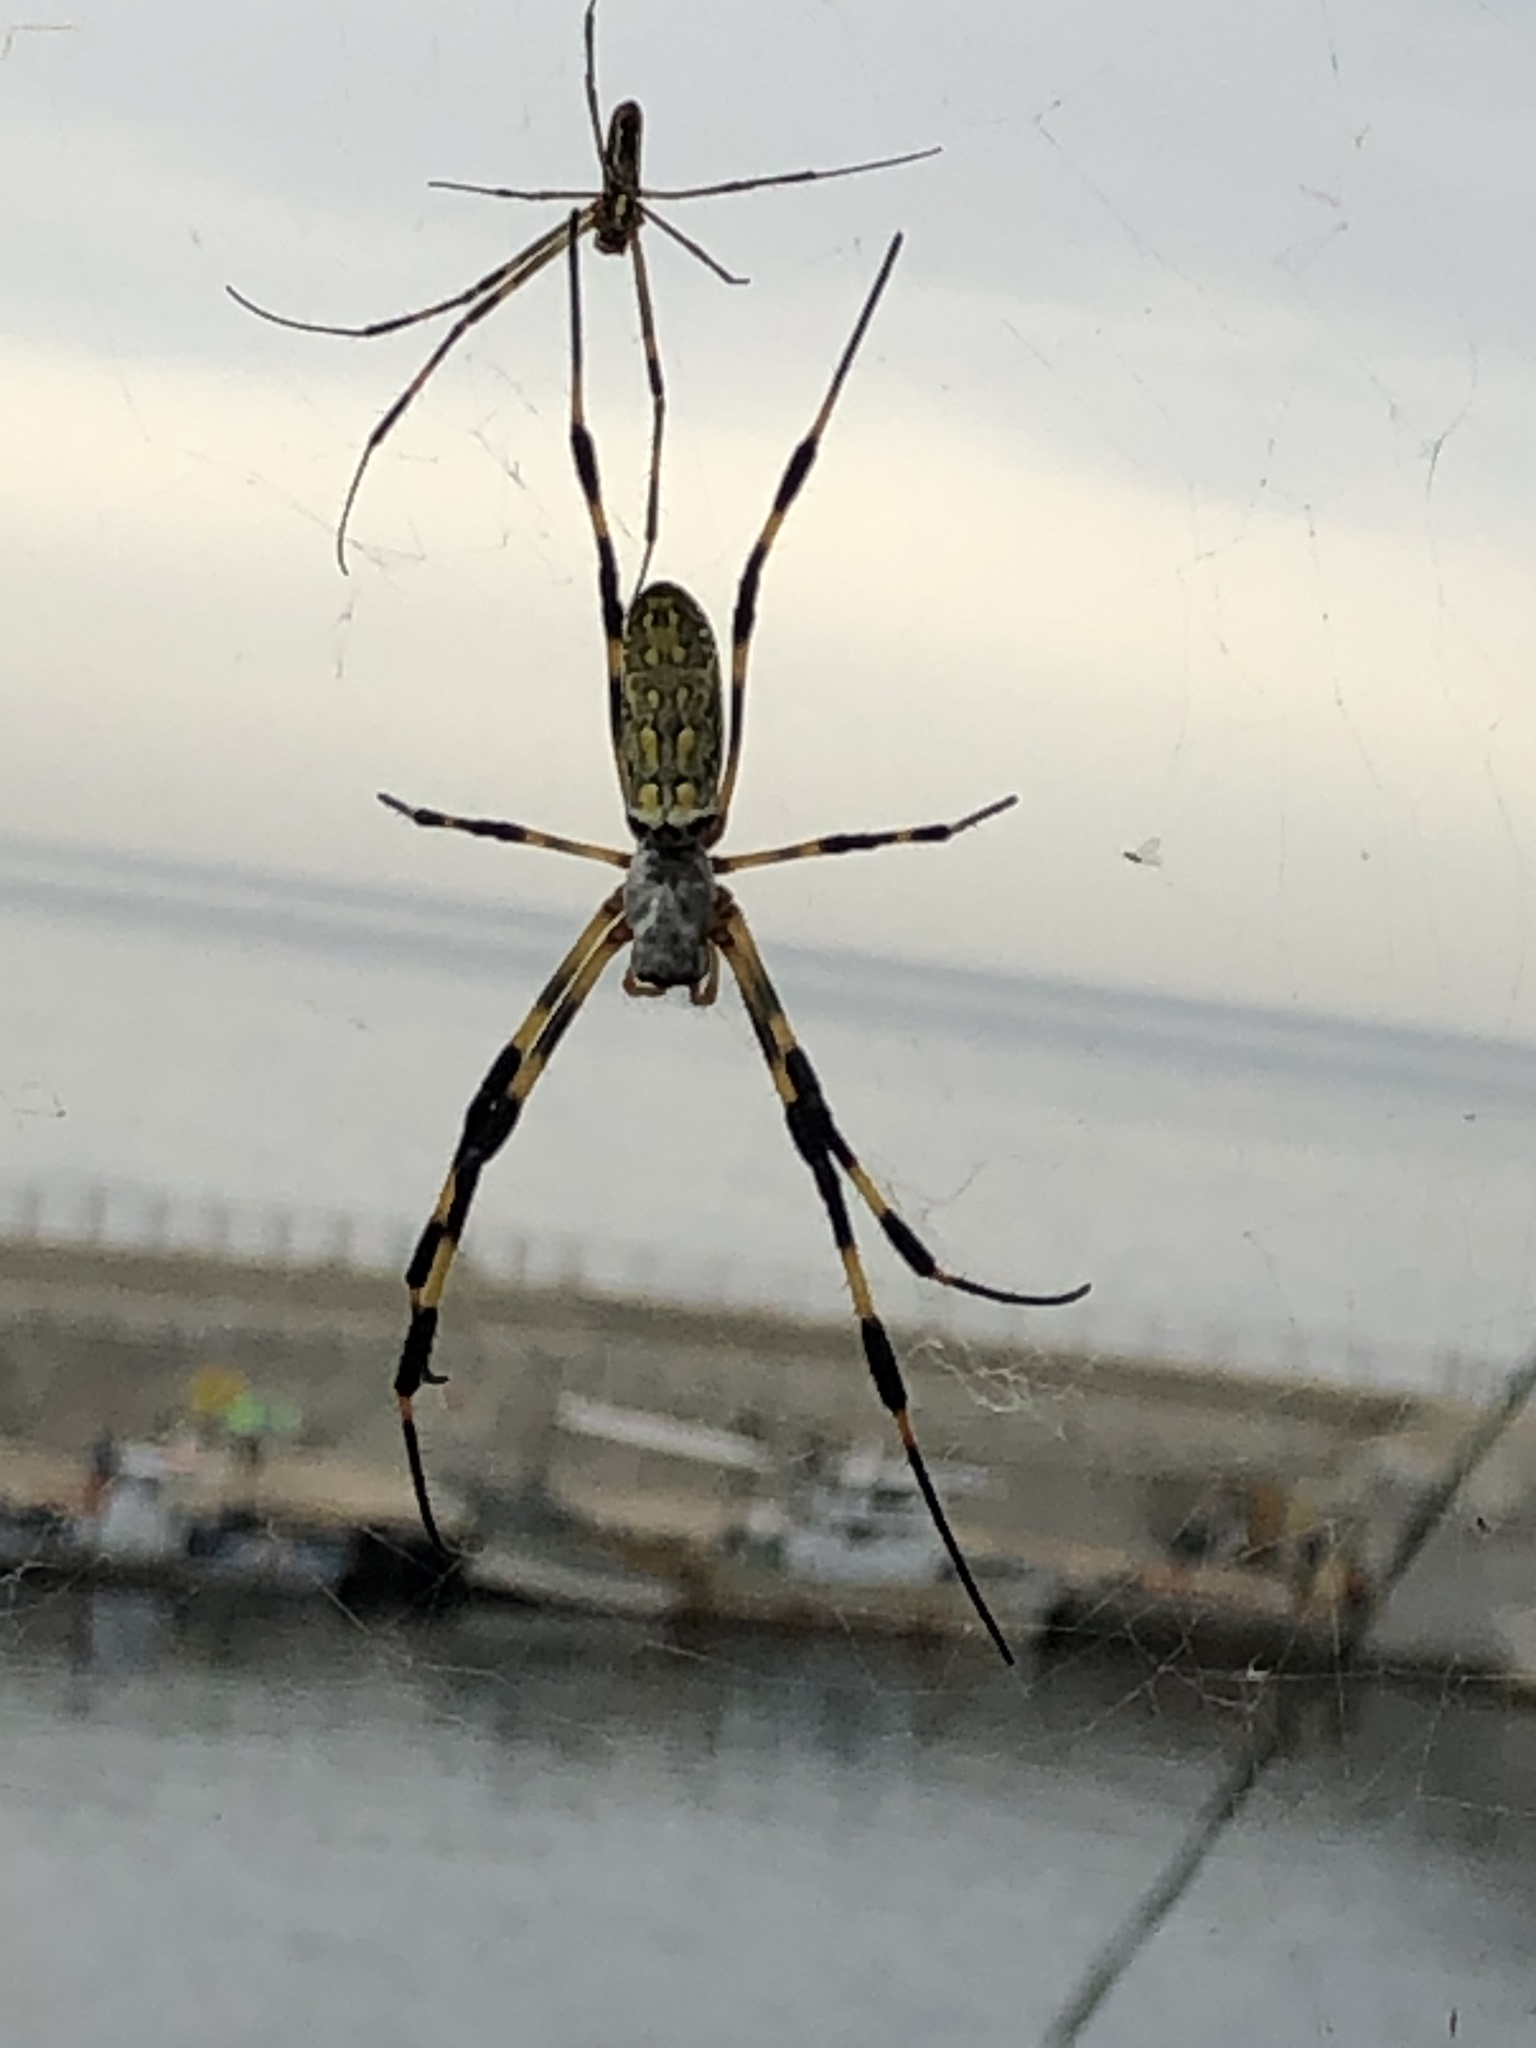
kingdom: Animalia
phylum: Arthropoda
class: Arachnida
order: Araneae
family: Araneidae
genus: Trichonephila
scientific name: Trichonephila clavata
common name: Jorō spider
